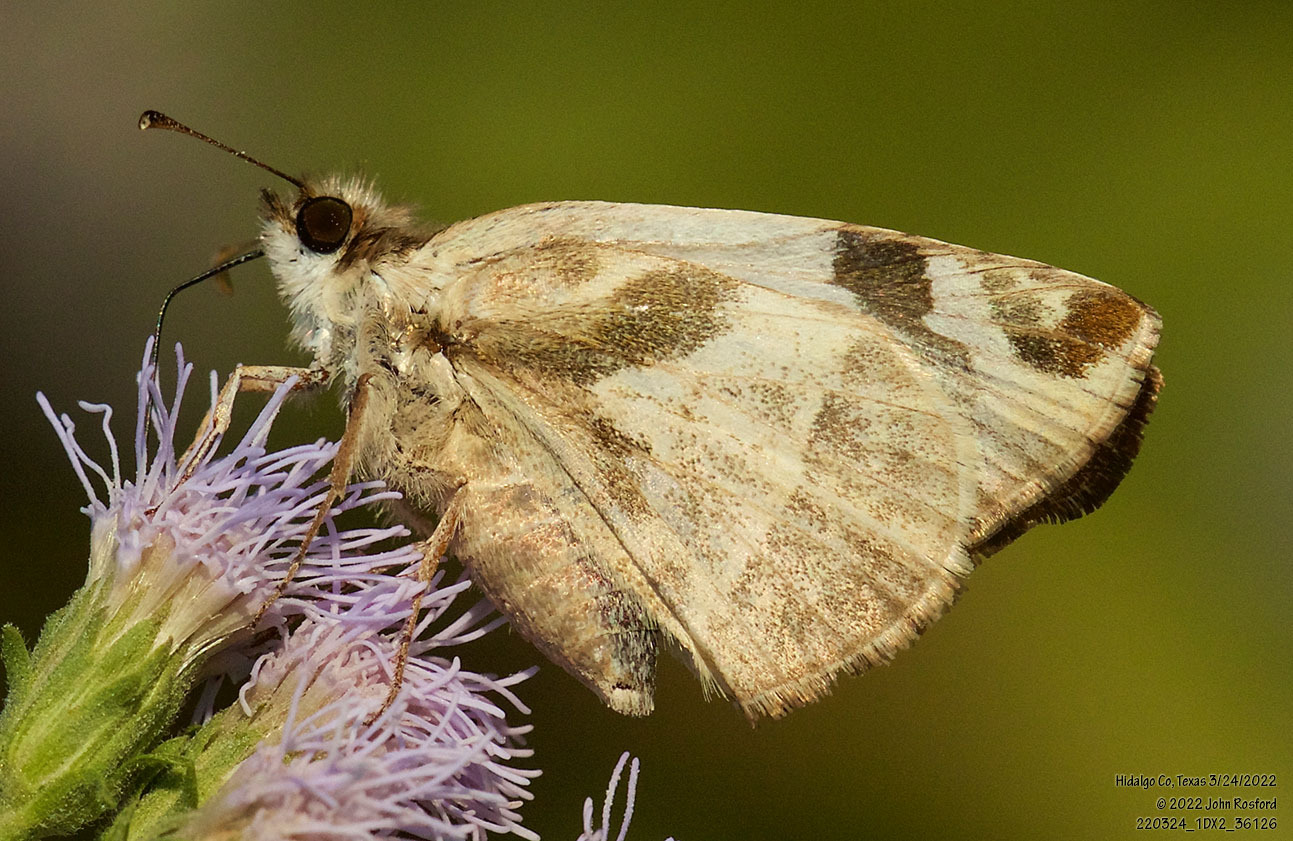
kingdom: Animalia
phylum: Arthropoda
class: Insecta
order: Lepidoptera
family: Hesperiidae
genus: Heliopetes
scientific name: Heliopetes laviana
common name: Laviana white-skipper
